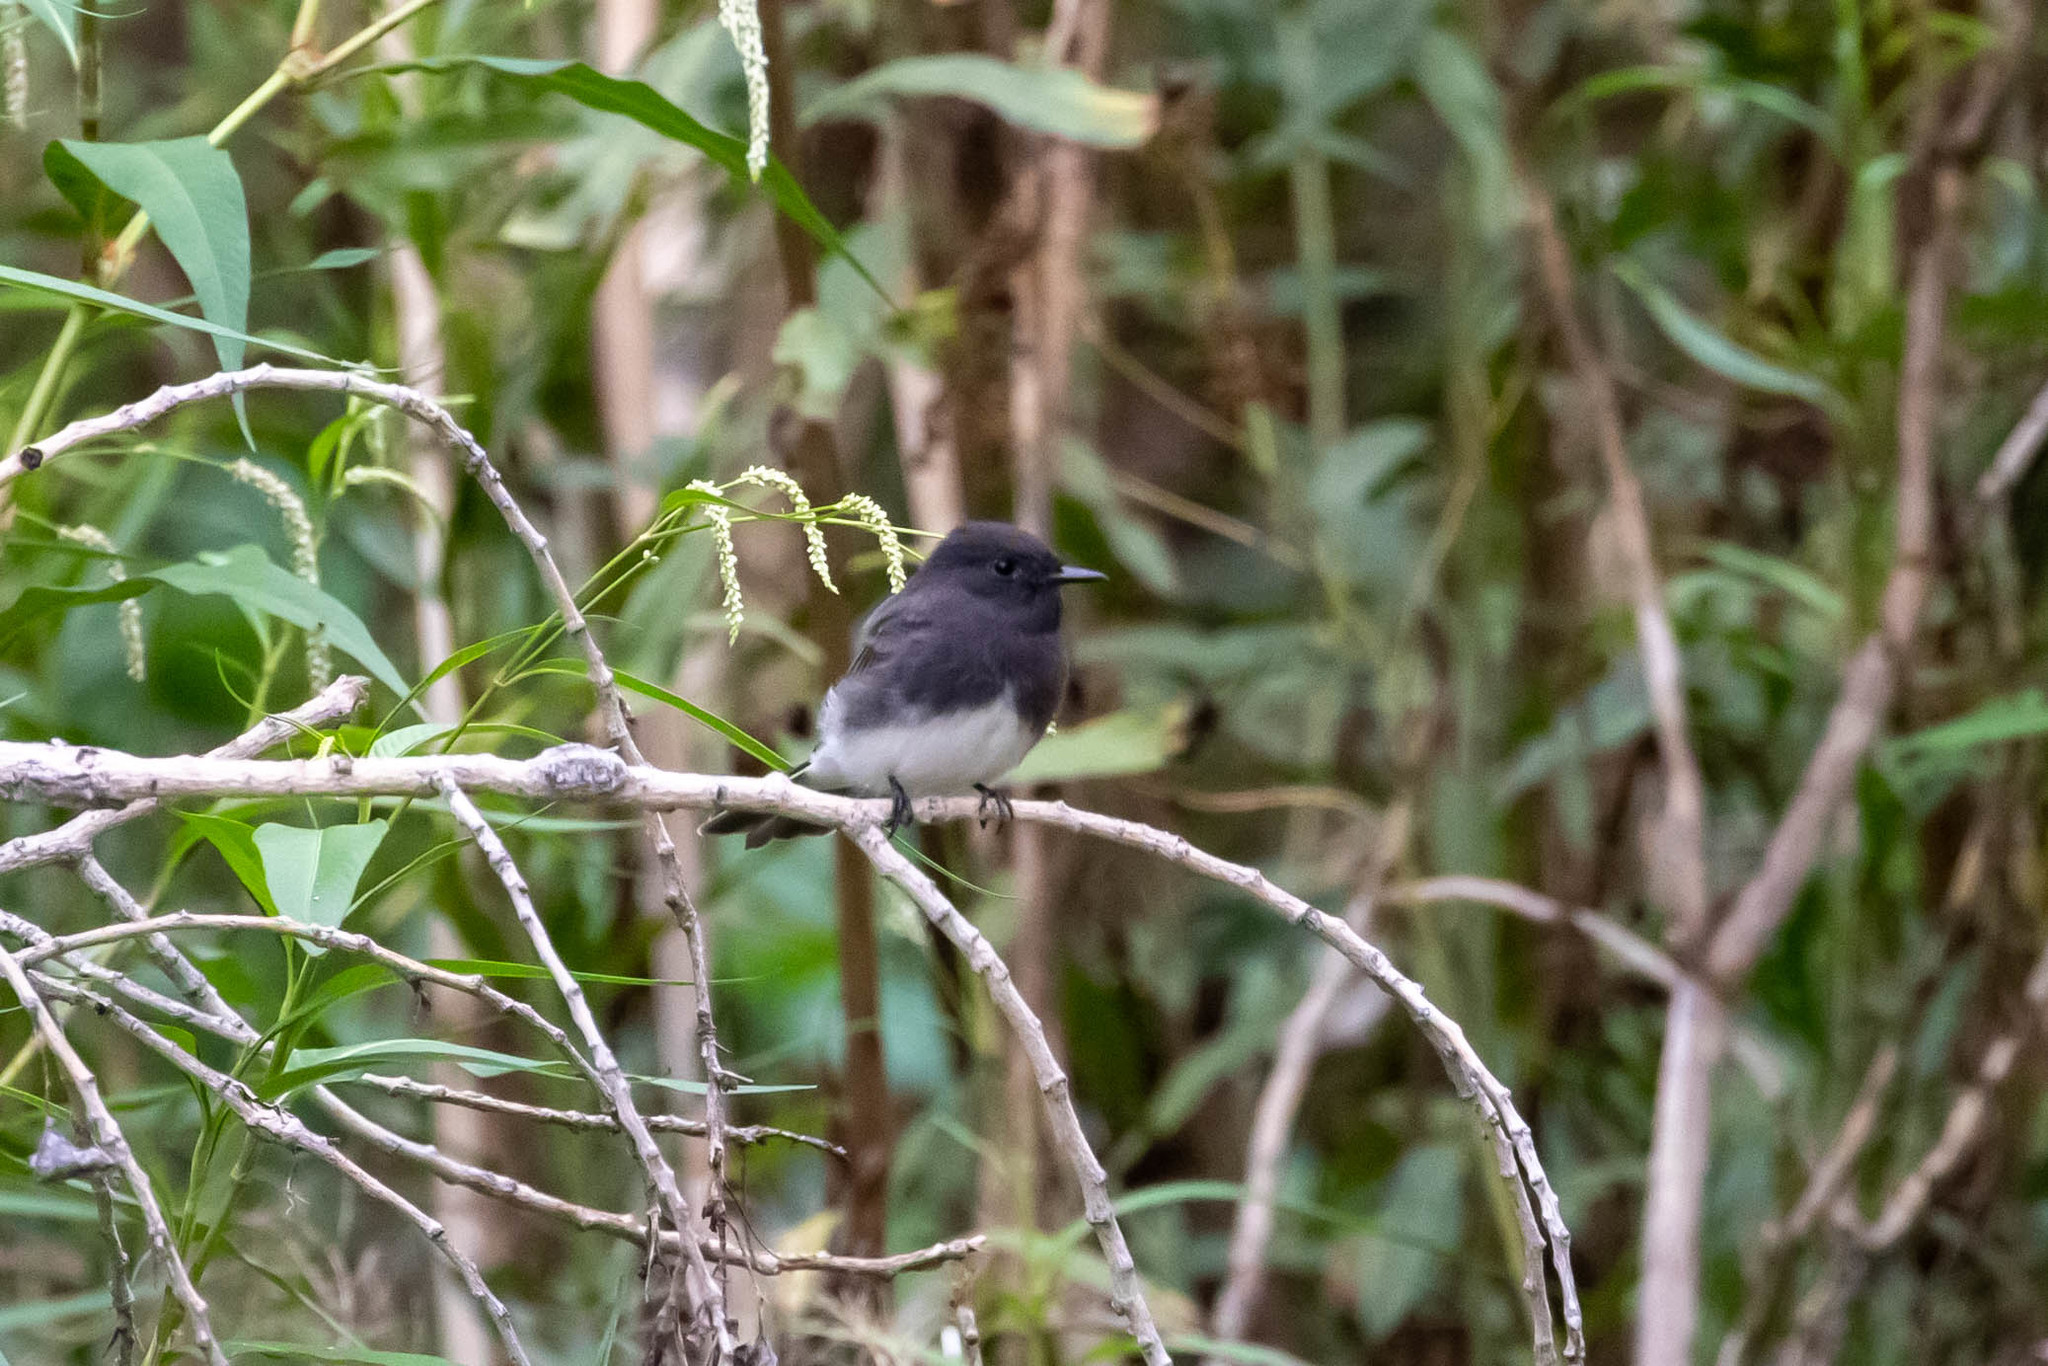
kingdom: Animalia
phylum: Chordata
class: Aves
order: Passeriformes
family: Tyrannidae
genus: Sayornis
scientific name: Sayornis nigricans
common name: Black phoebe
